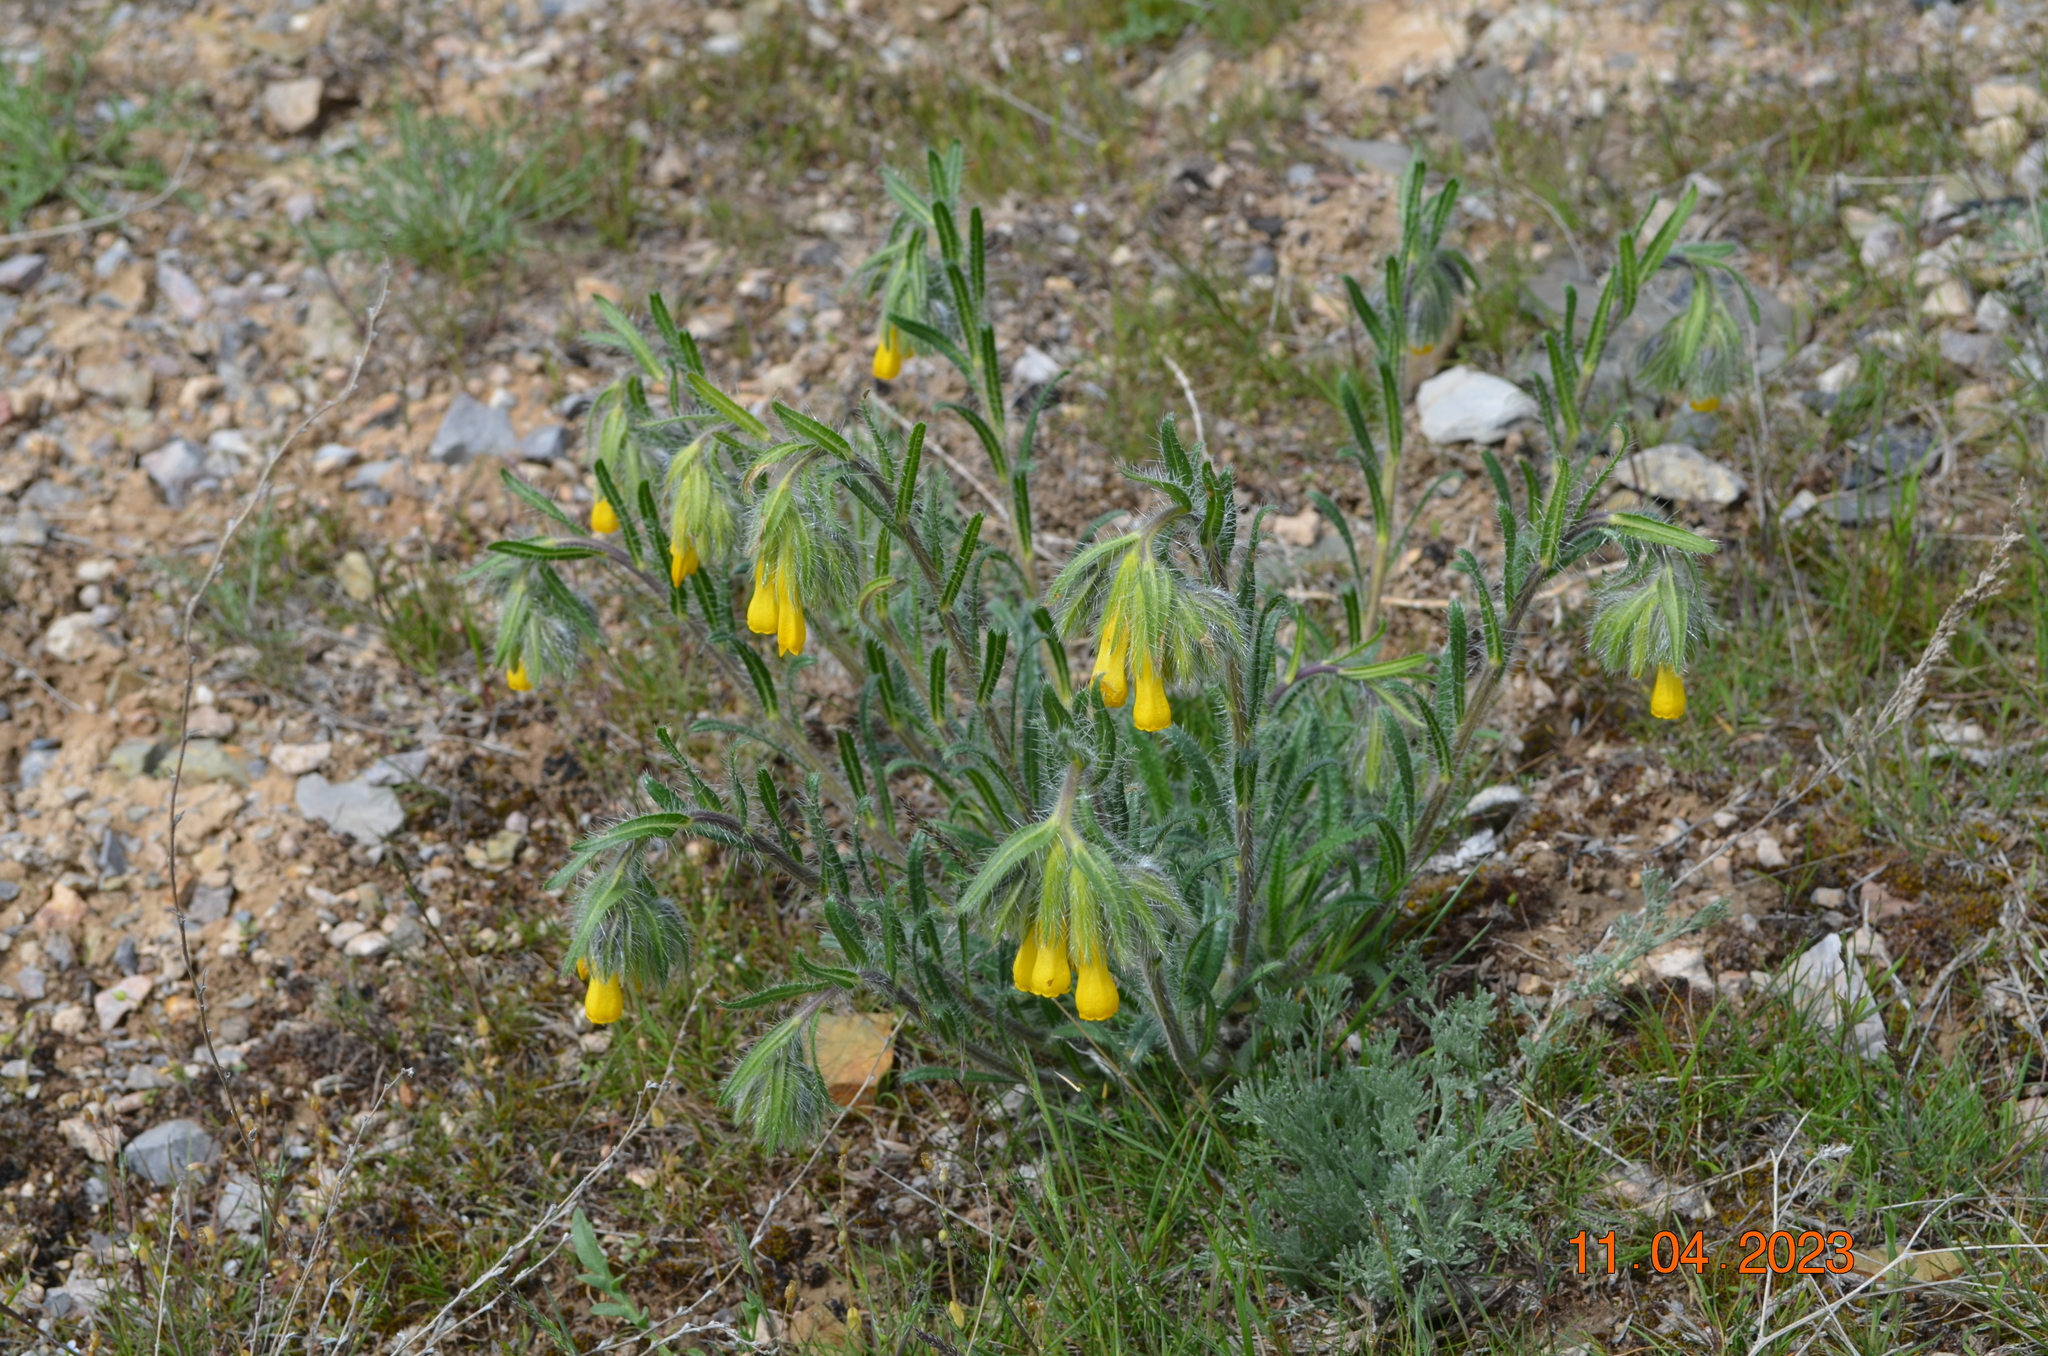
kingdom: Plantae
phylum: Tracheophyta
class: Magnoliopsida
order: Boraginales
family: Boraginaceae
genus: Onosma
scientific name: Onosma irritans
